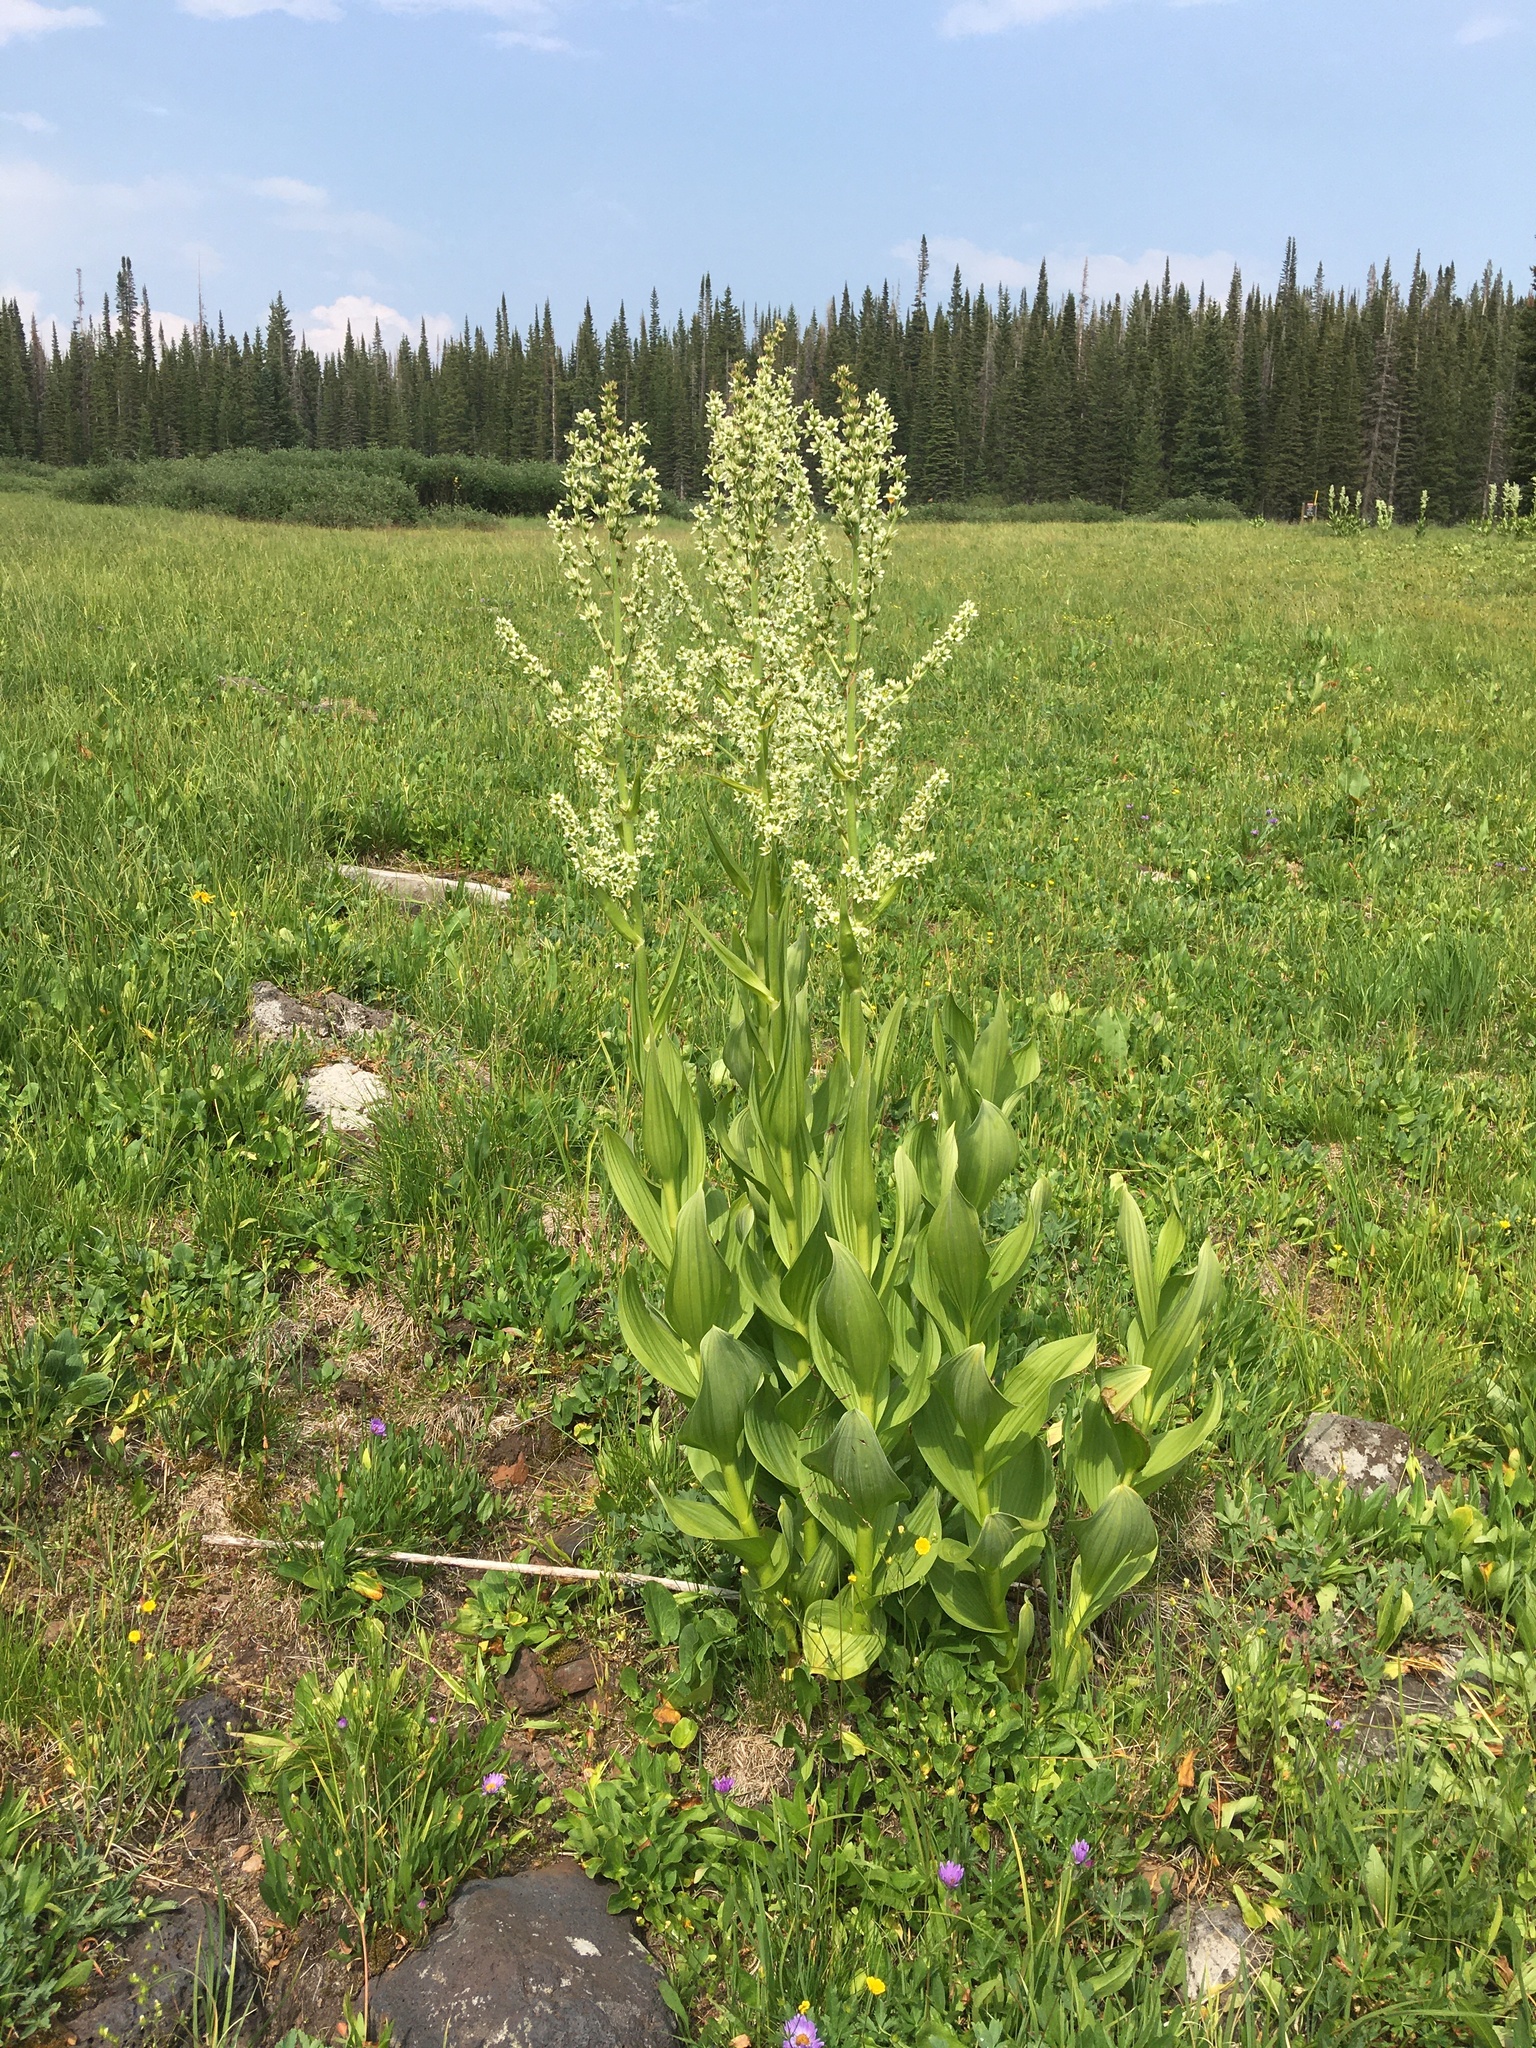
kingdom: Plantae
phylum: Tracheophyta
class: Liliopsida
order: Liliales
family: Melanthiaceae
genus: Veratrum
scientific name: Veratrum californicum
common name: California veratrum
